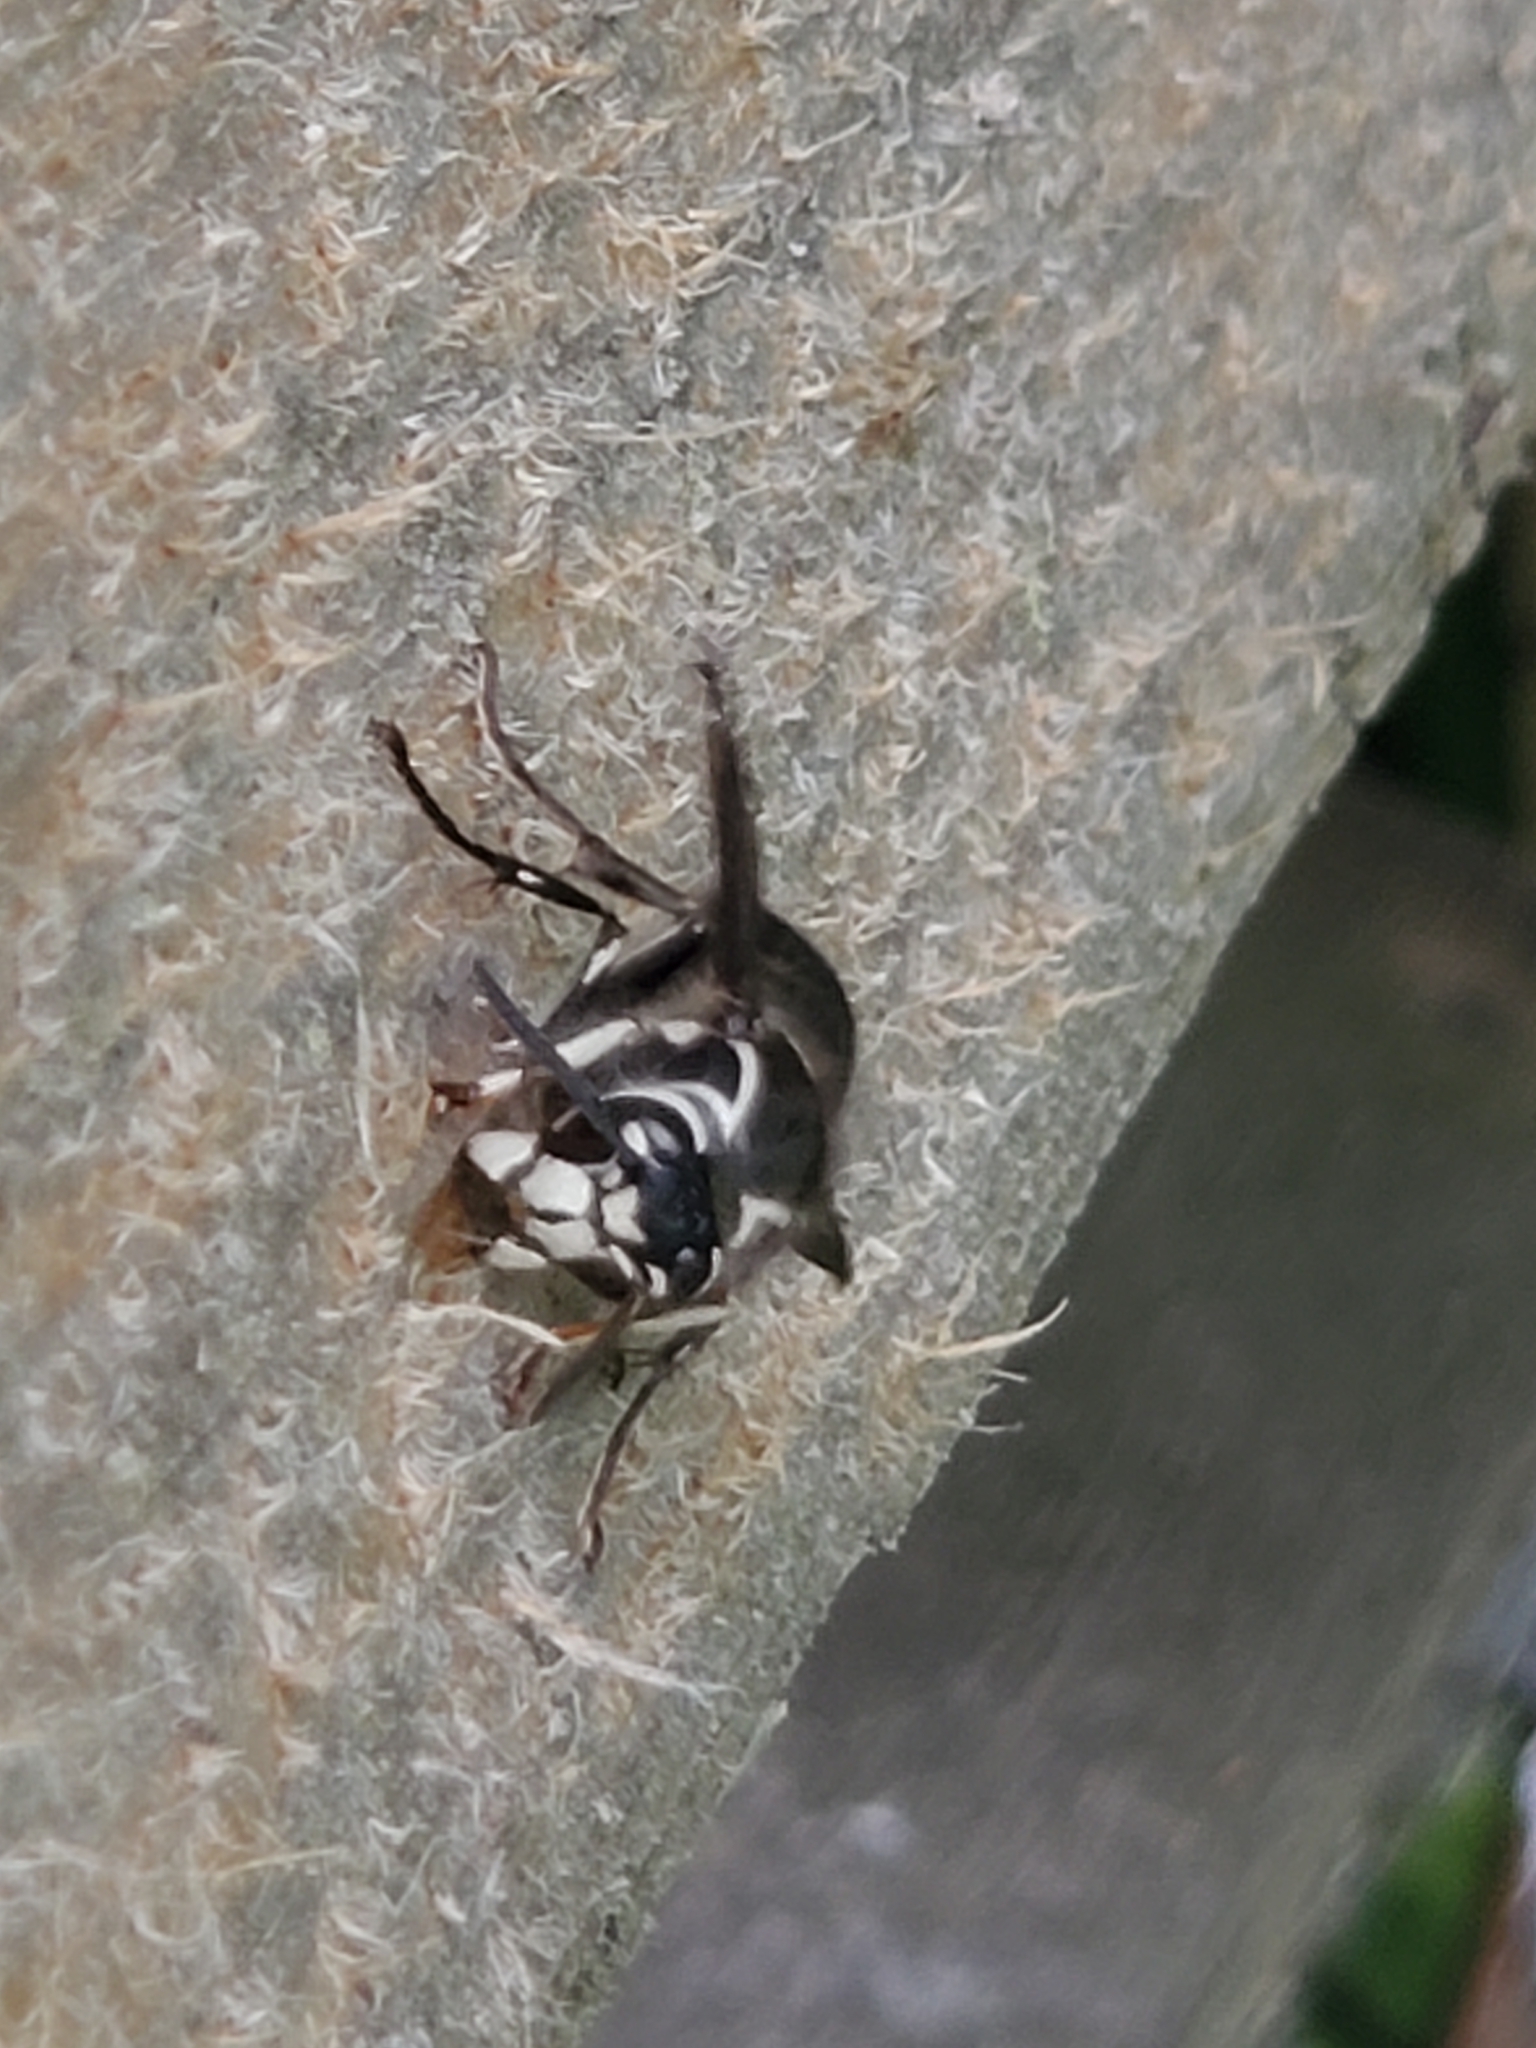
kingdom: Animalia
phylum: Arthropoda
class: Insecta
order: Hymenoptera
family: Vespidae
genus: Dolichovespula
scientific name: Dolichovespula maculata
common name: Bald-faced hornet
